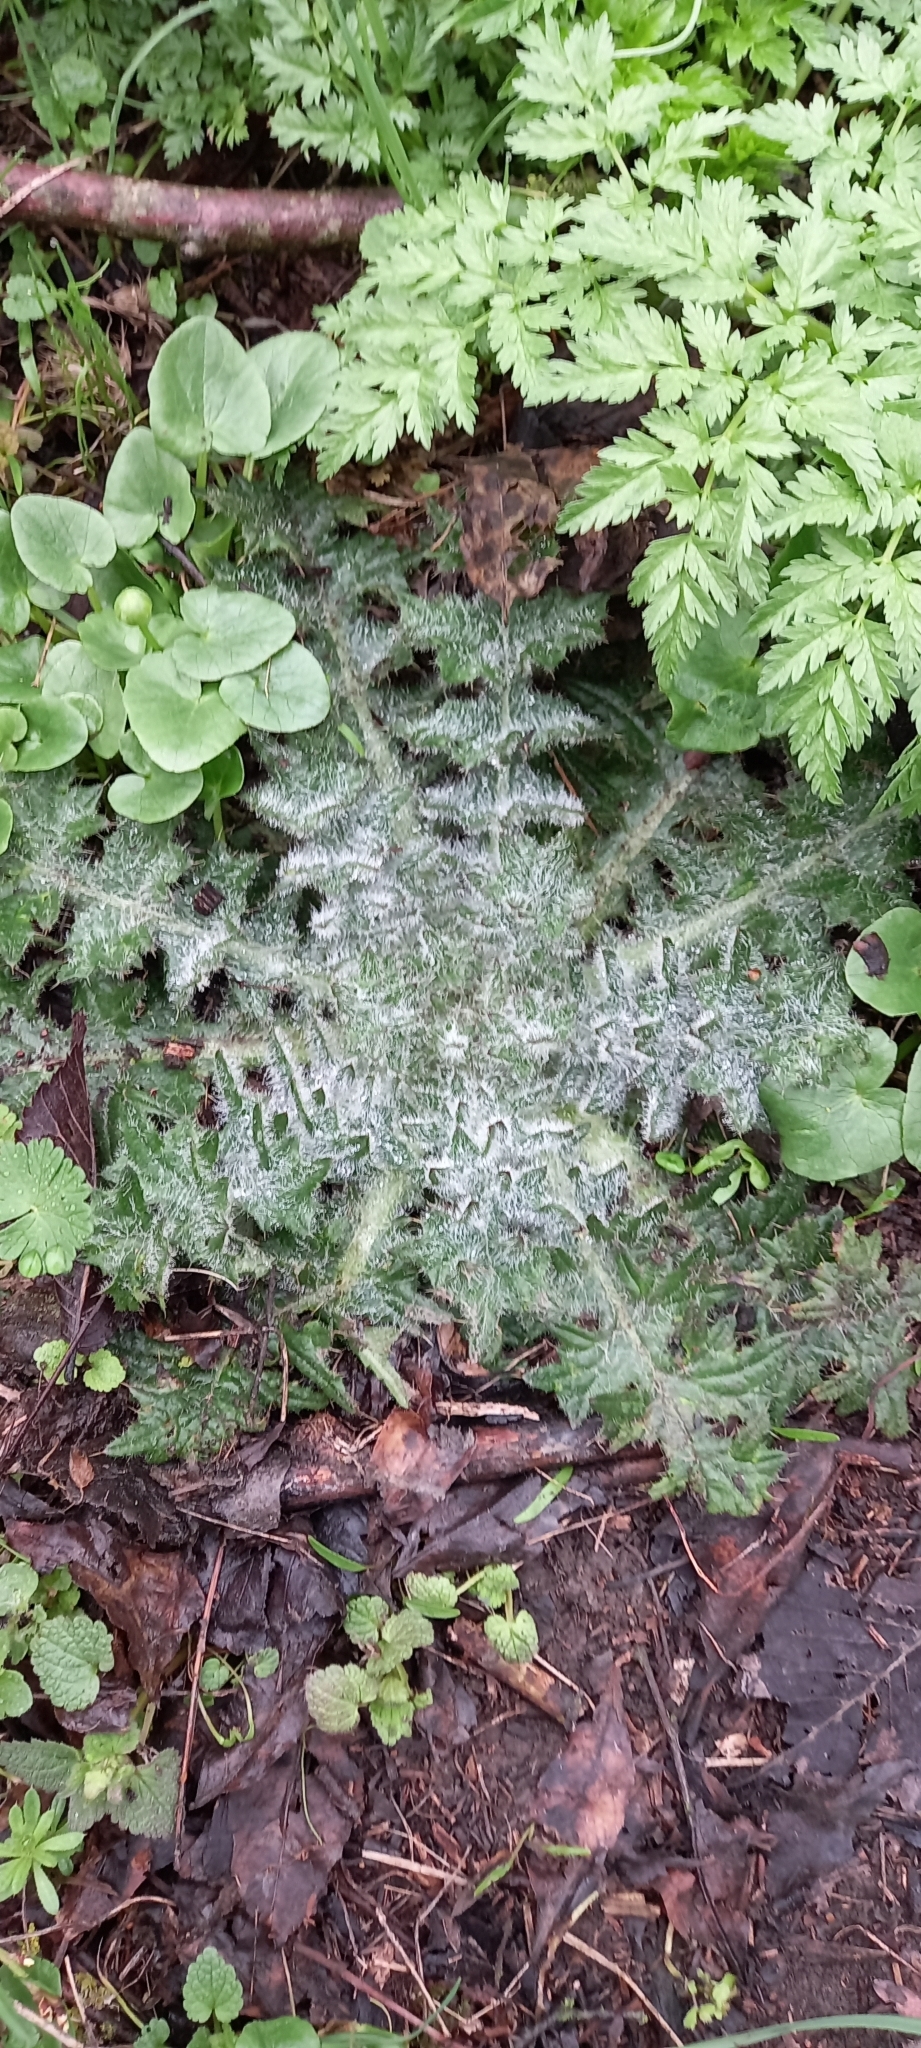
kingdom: Plantae
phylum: Tracheophyta
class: Magnoliopsida
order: Asterales
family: Asteraceae
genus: Cirsium
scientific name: Cirsium vulgare
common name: Bull thistle
